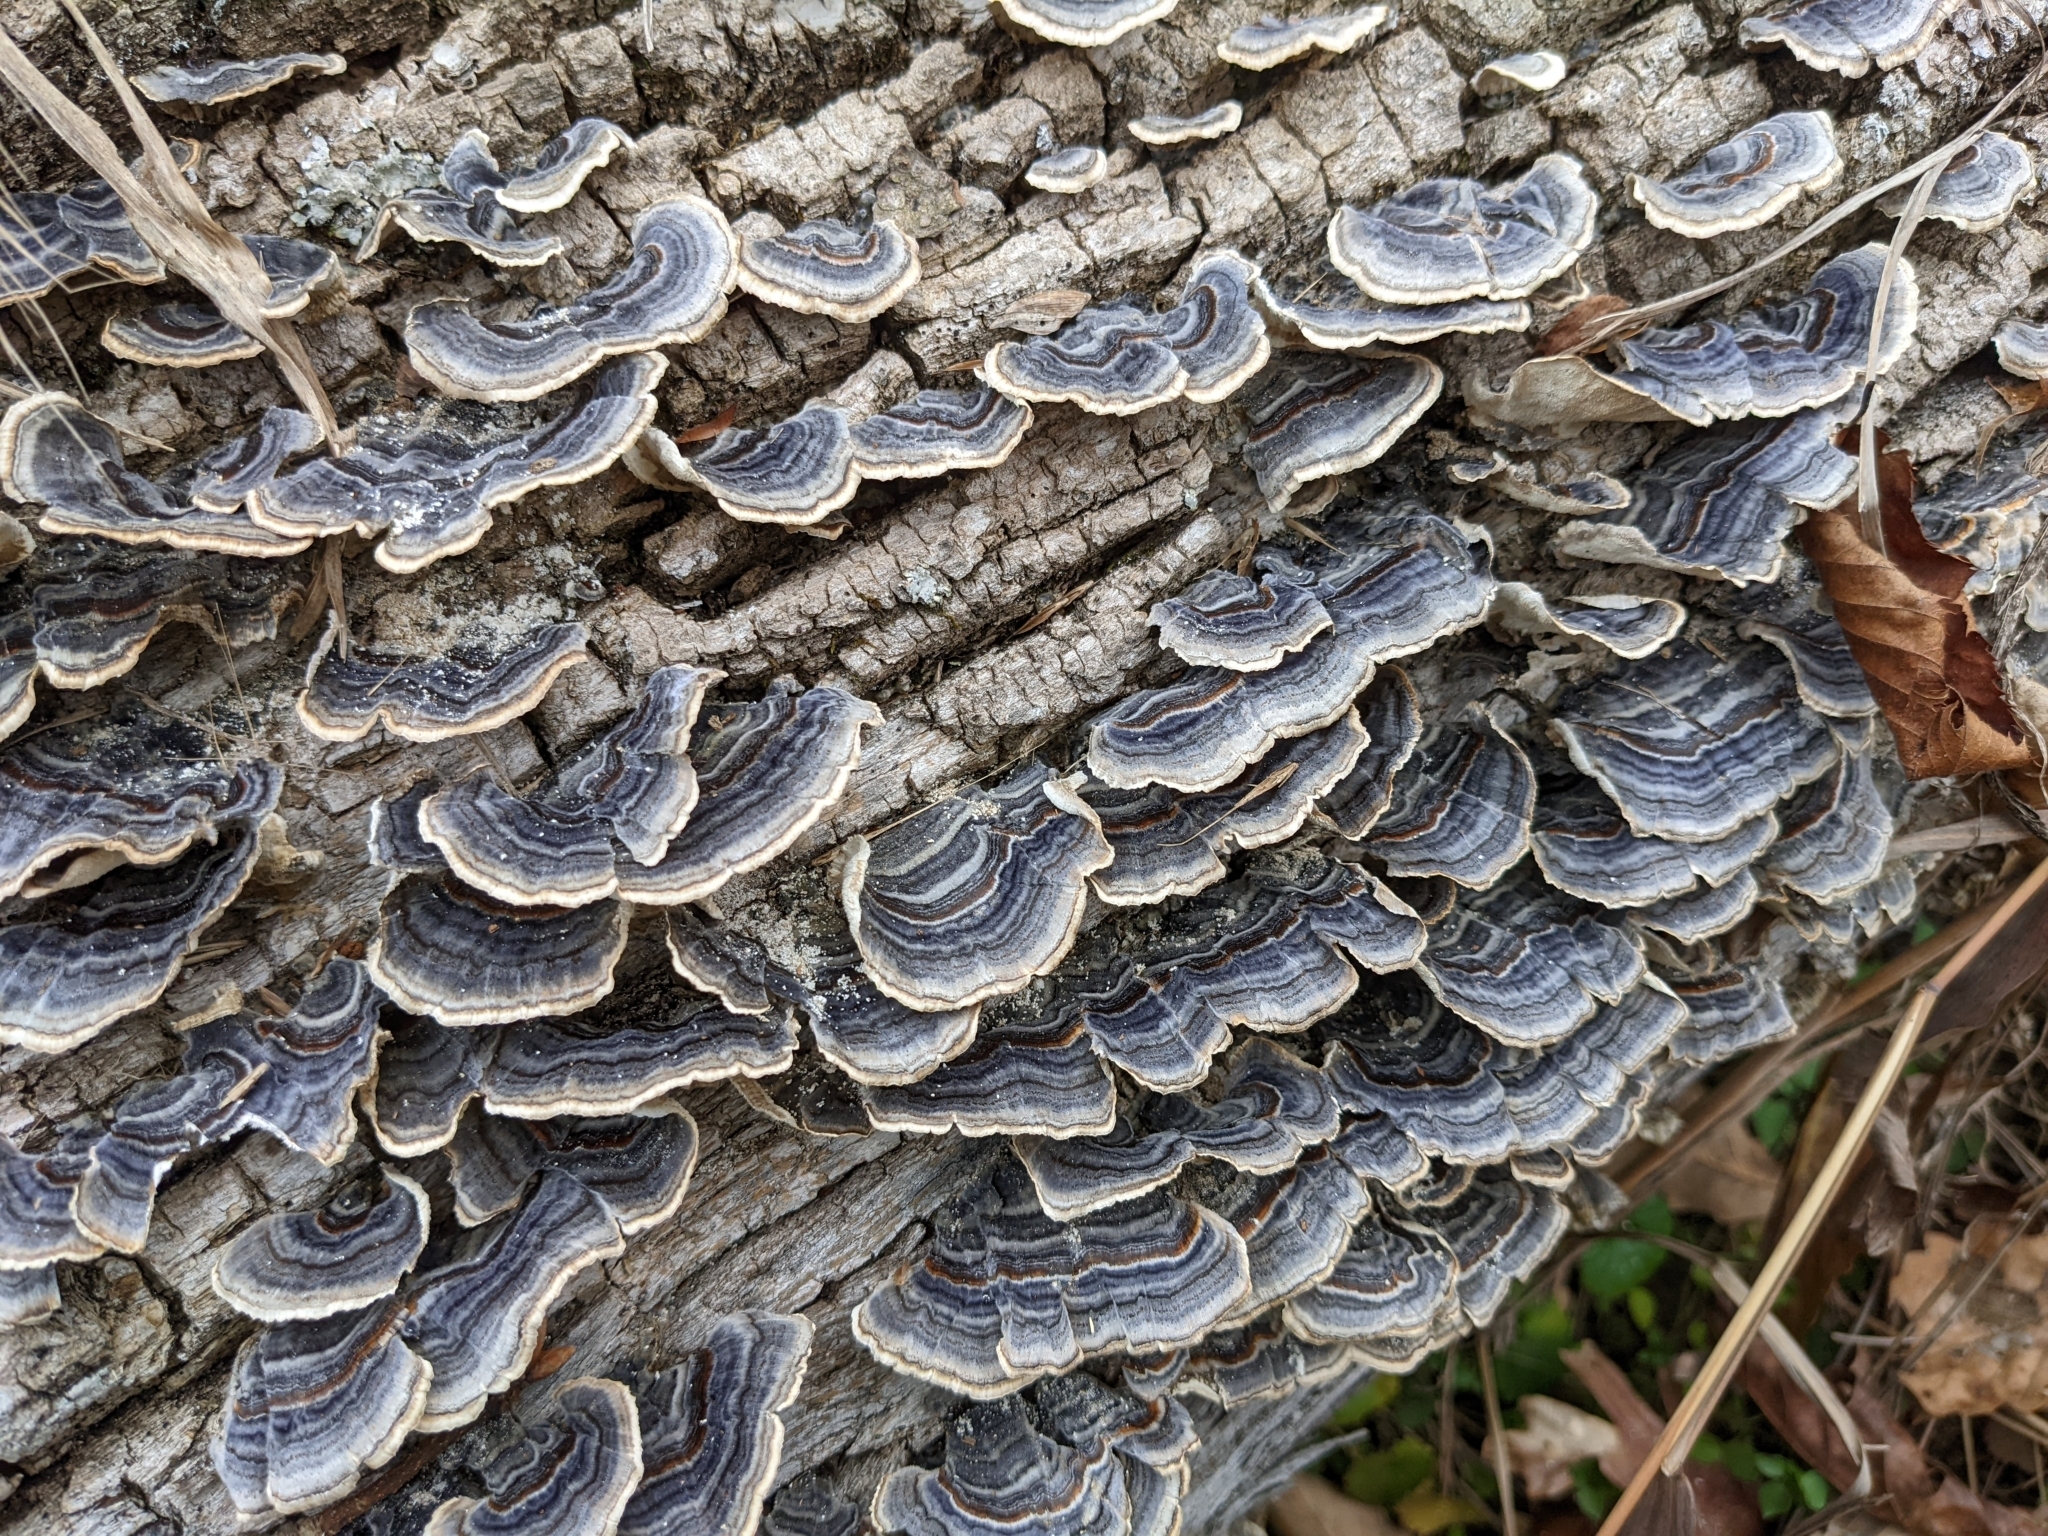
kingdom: Fungi
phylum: Basidiomycota
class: Agaricomycetes
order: Polyporales
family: Polyporaceae
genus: Trametes
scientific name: Trametes versicolor
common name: Turkeytail
